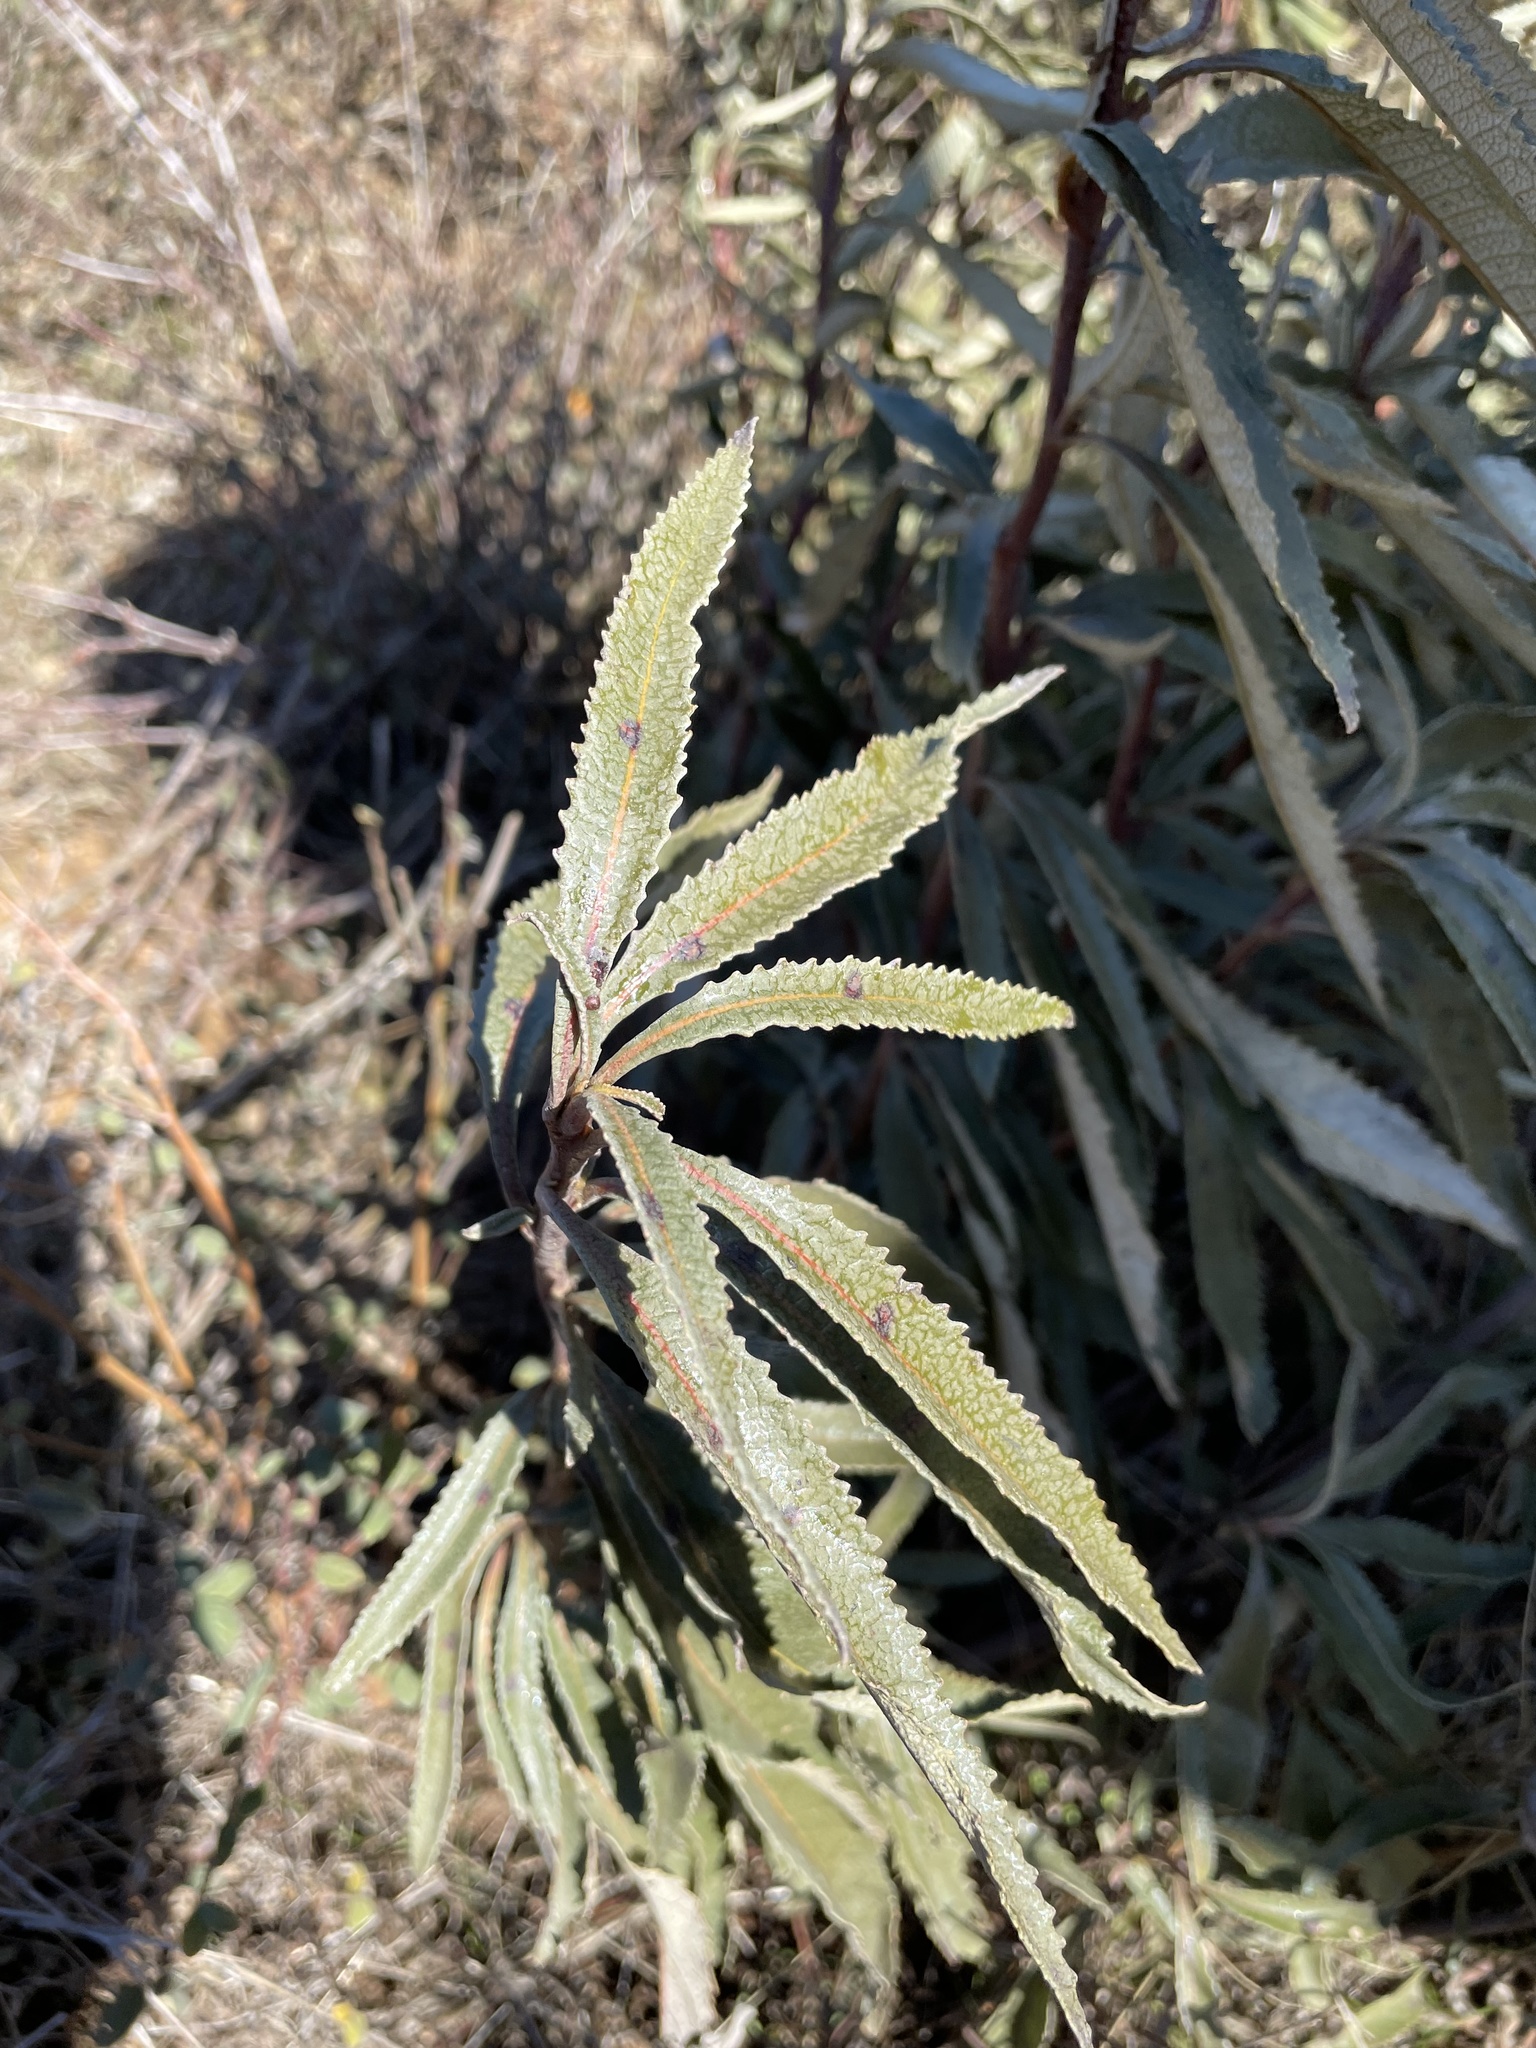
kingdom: Plantae
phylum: Tracheophyta
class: Magnoliopsida
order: Boraginales
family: Namaceae
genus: Eriodictyon
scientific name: Eriodictyon californicum
